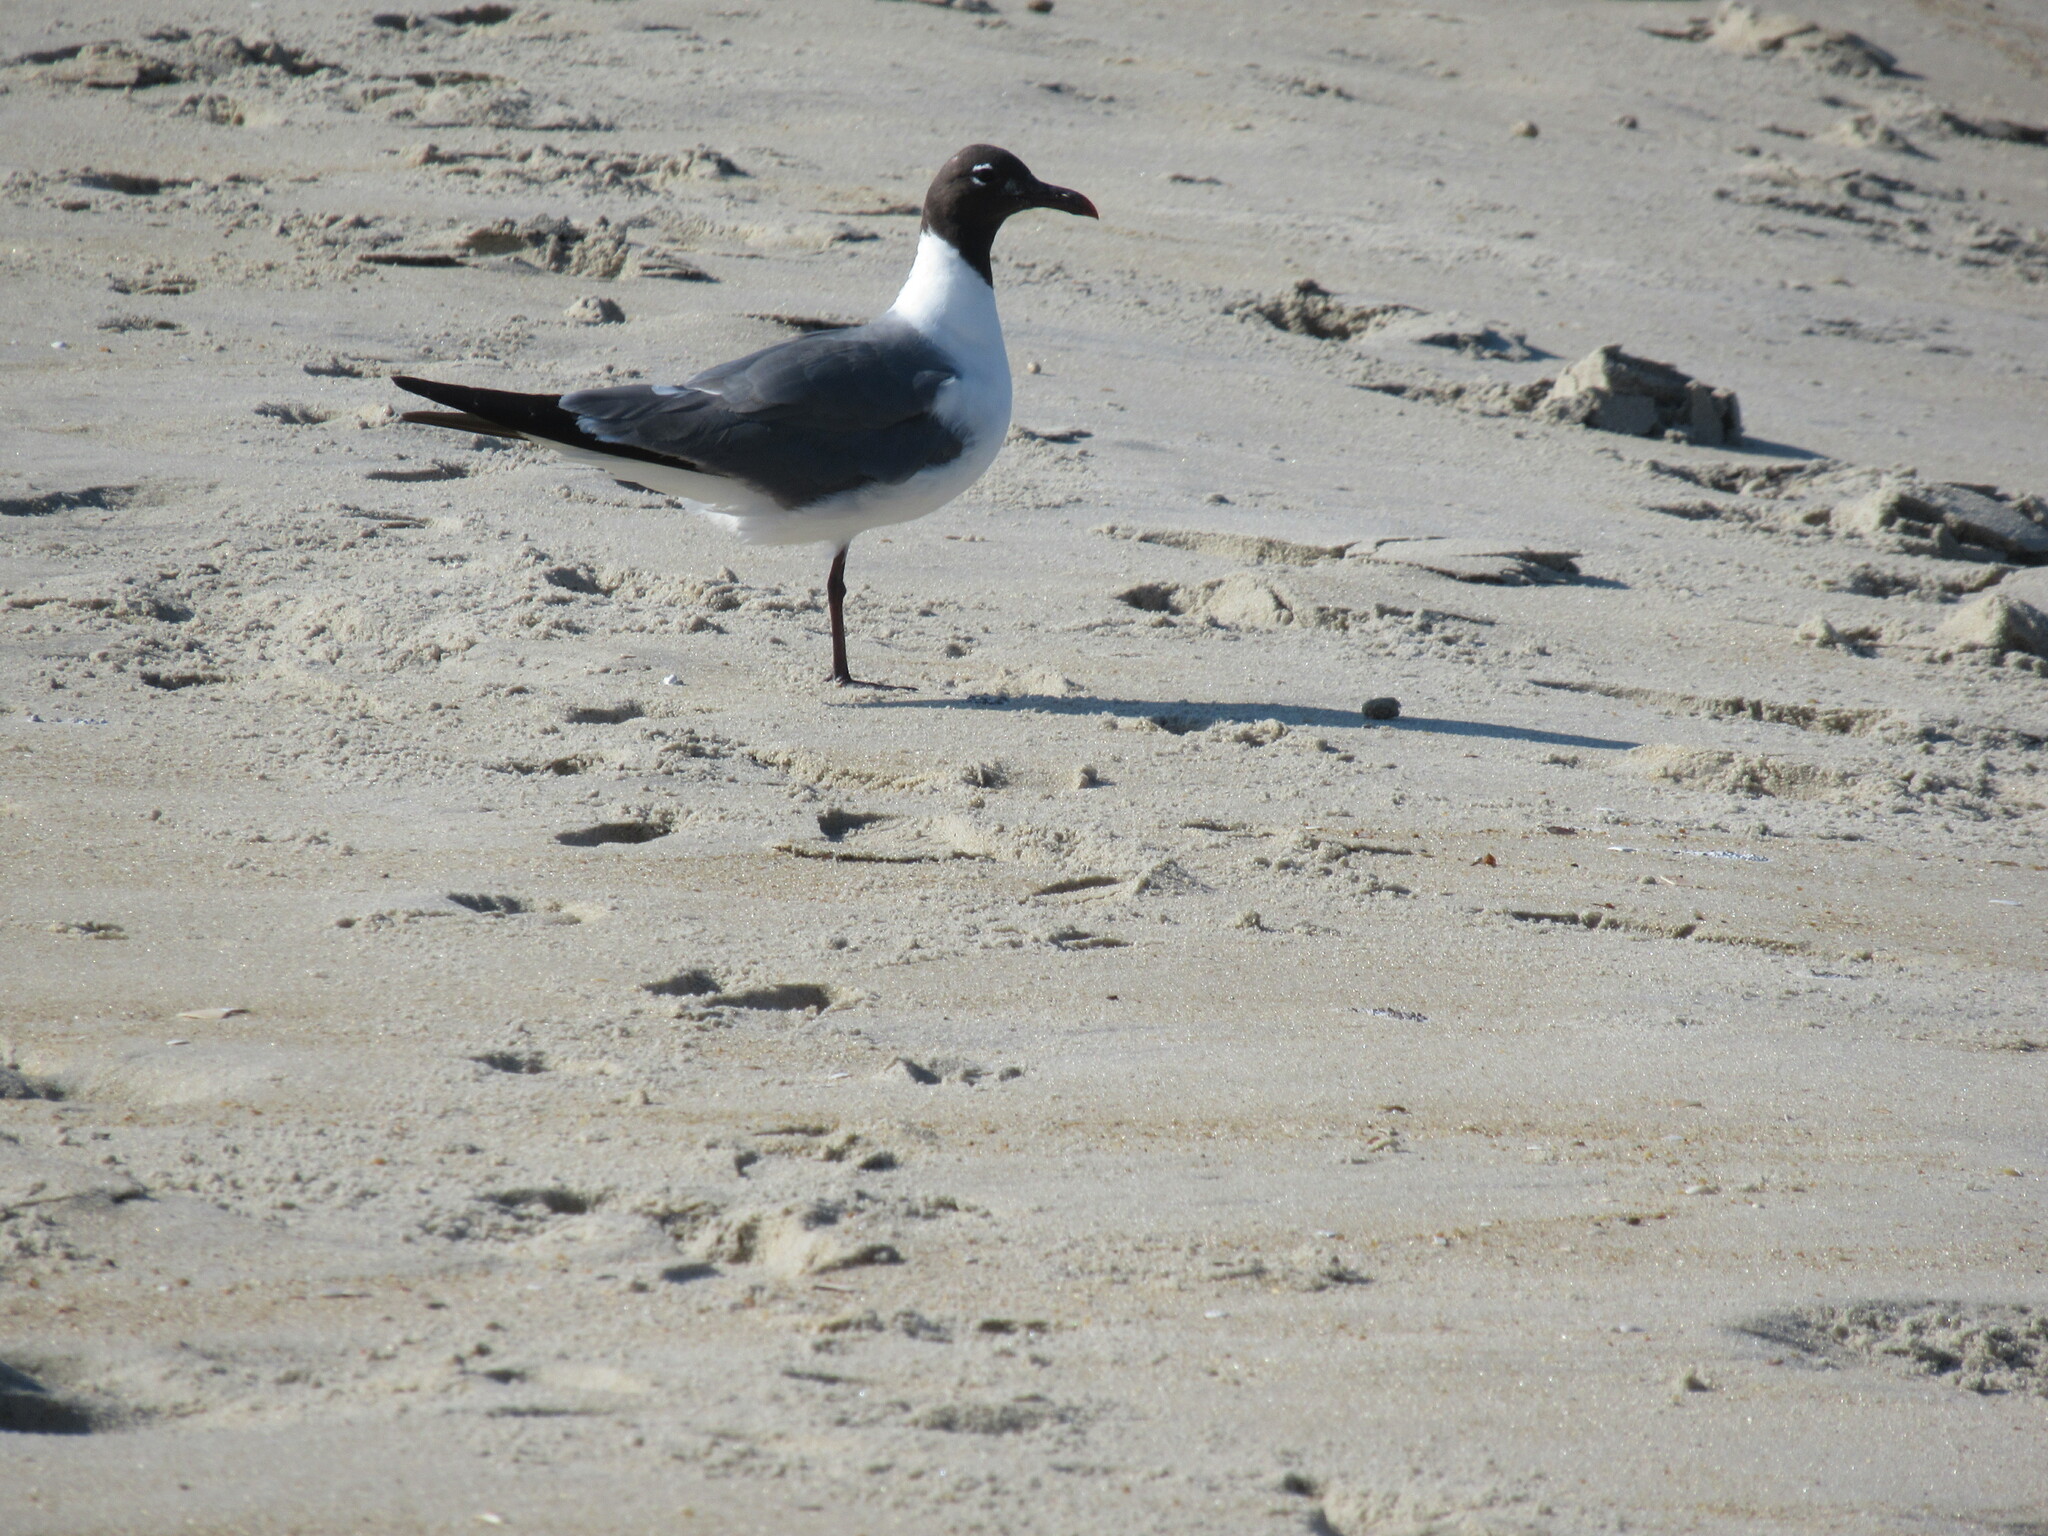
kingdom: Animalia
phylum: Chordata
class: Aves
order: Charadriiformes
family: Laridae
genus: Leucophaeus
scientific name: Leucophaeus atricilla
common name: Laughing gull
